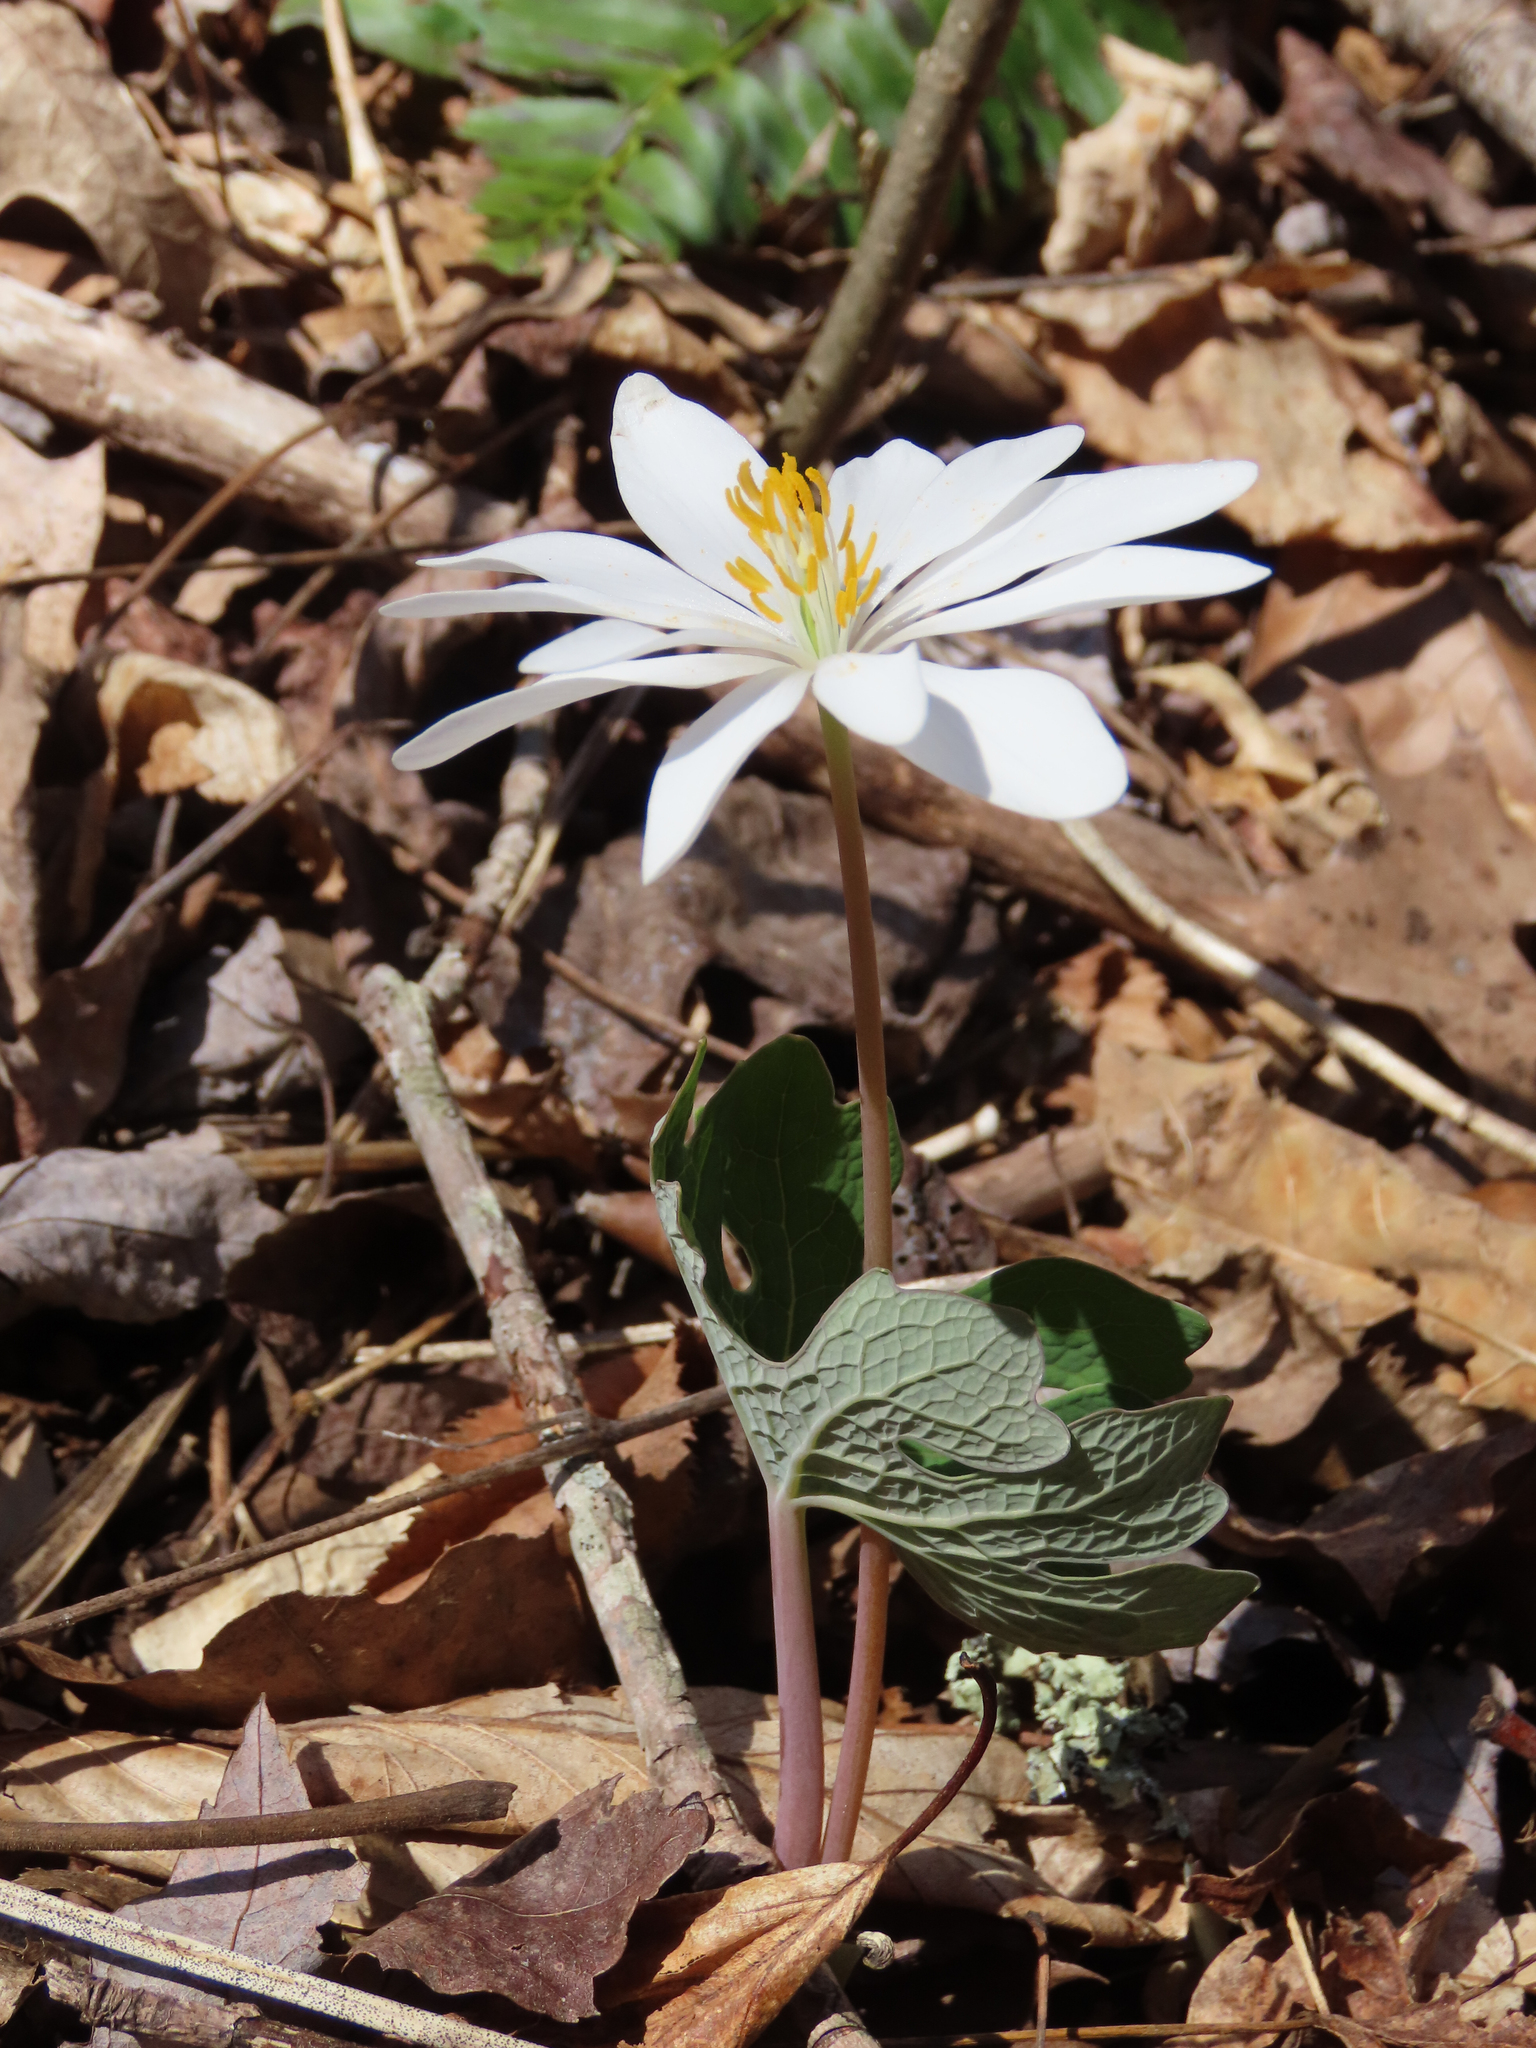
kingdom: Plantae
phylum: Tracheophyta
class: Magnoliopsida
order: Ranunculales
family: Papaveraceae
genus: Sanguinaria
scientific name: Sanguinaria canadensis
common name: Bloodroot
